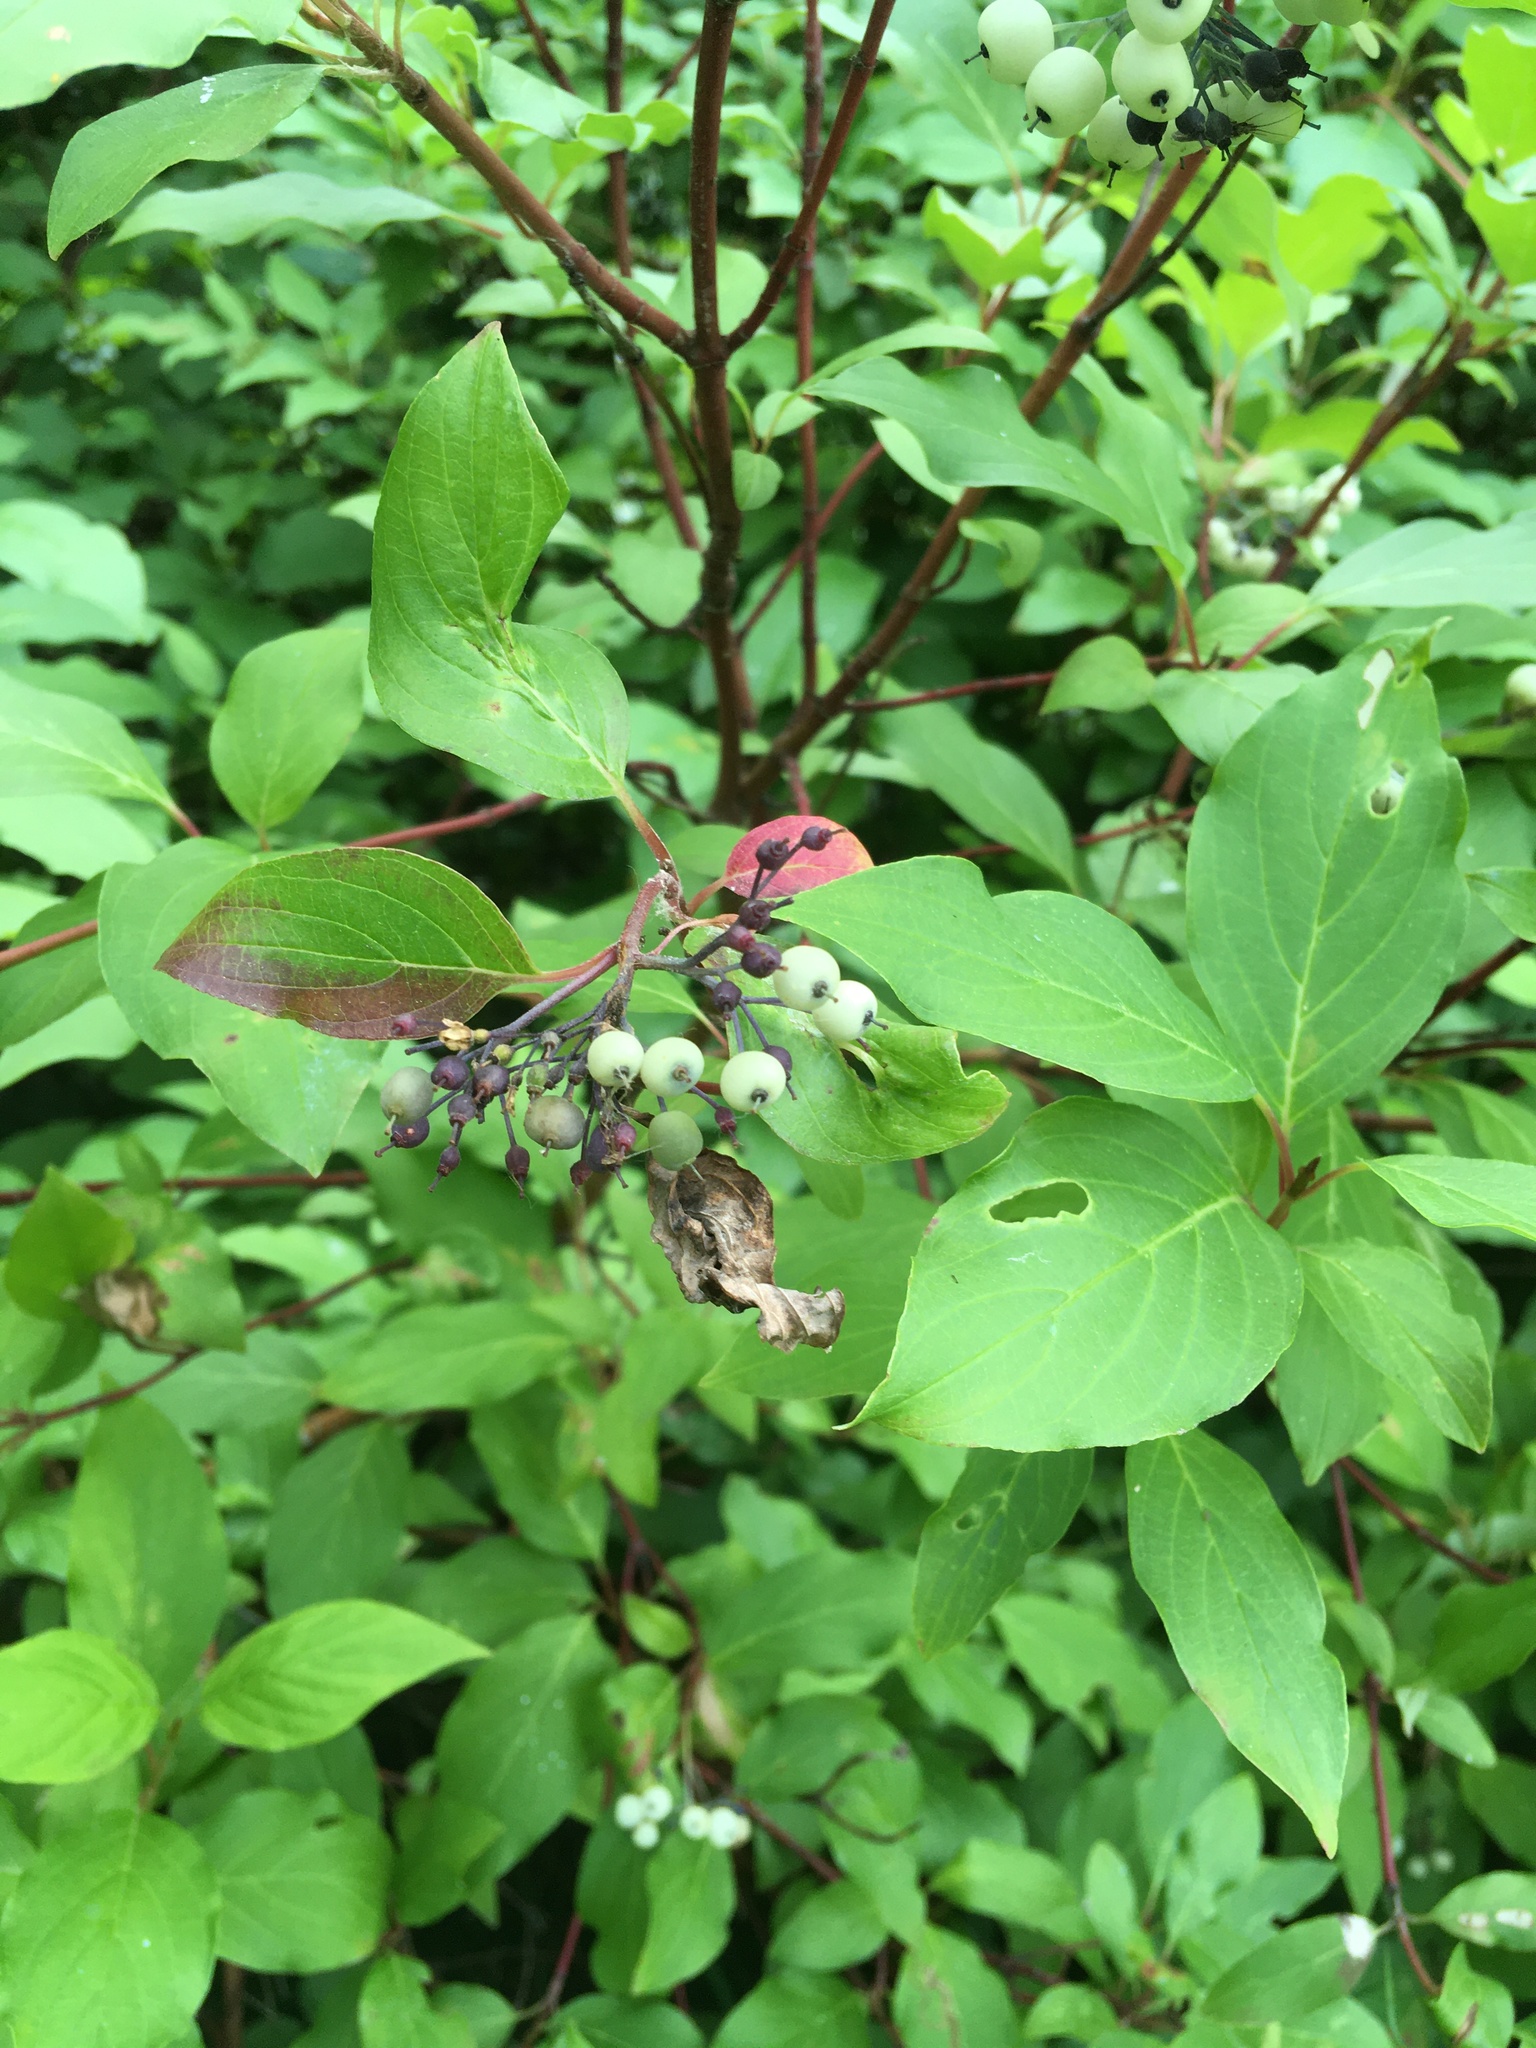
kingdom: Plantae
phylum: Tracheophyta
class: Magnoliopsida
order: Cornales
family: Cornaceae
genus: Cornus
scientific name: Cornus sericea
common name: Red-osier dogwood
